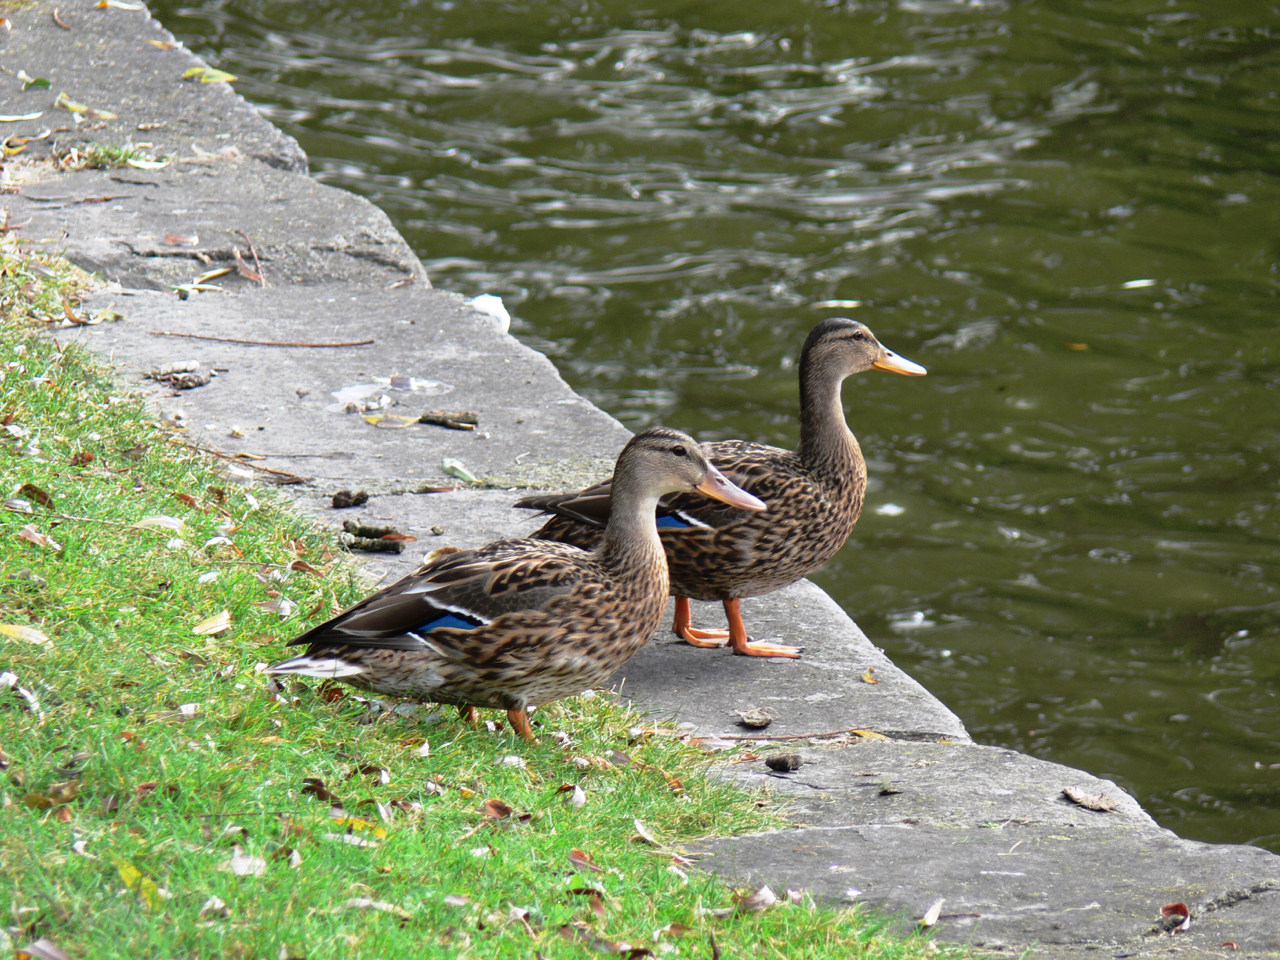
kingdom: Animalia
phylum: Chordata
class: Aves
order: Anseriformes
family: Anatidae
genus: Anas
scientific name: Anas platyrhynchos
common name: Mallard
